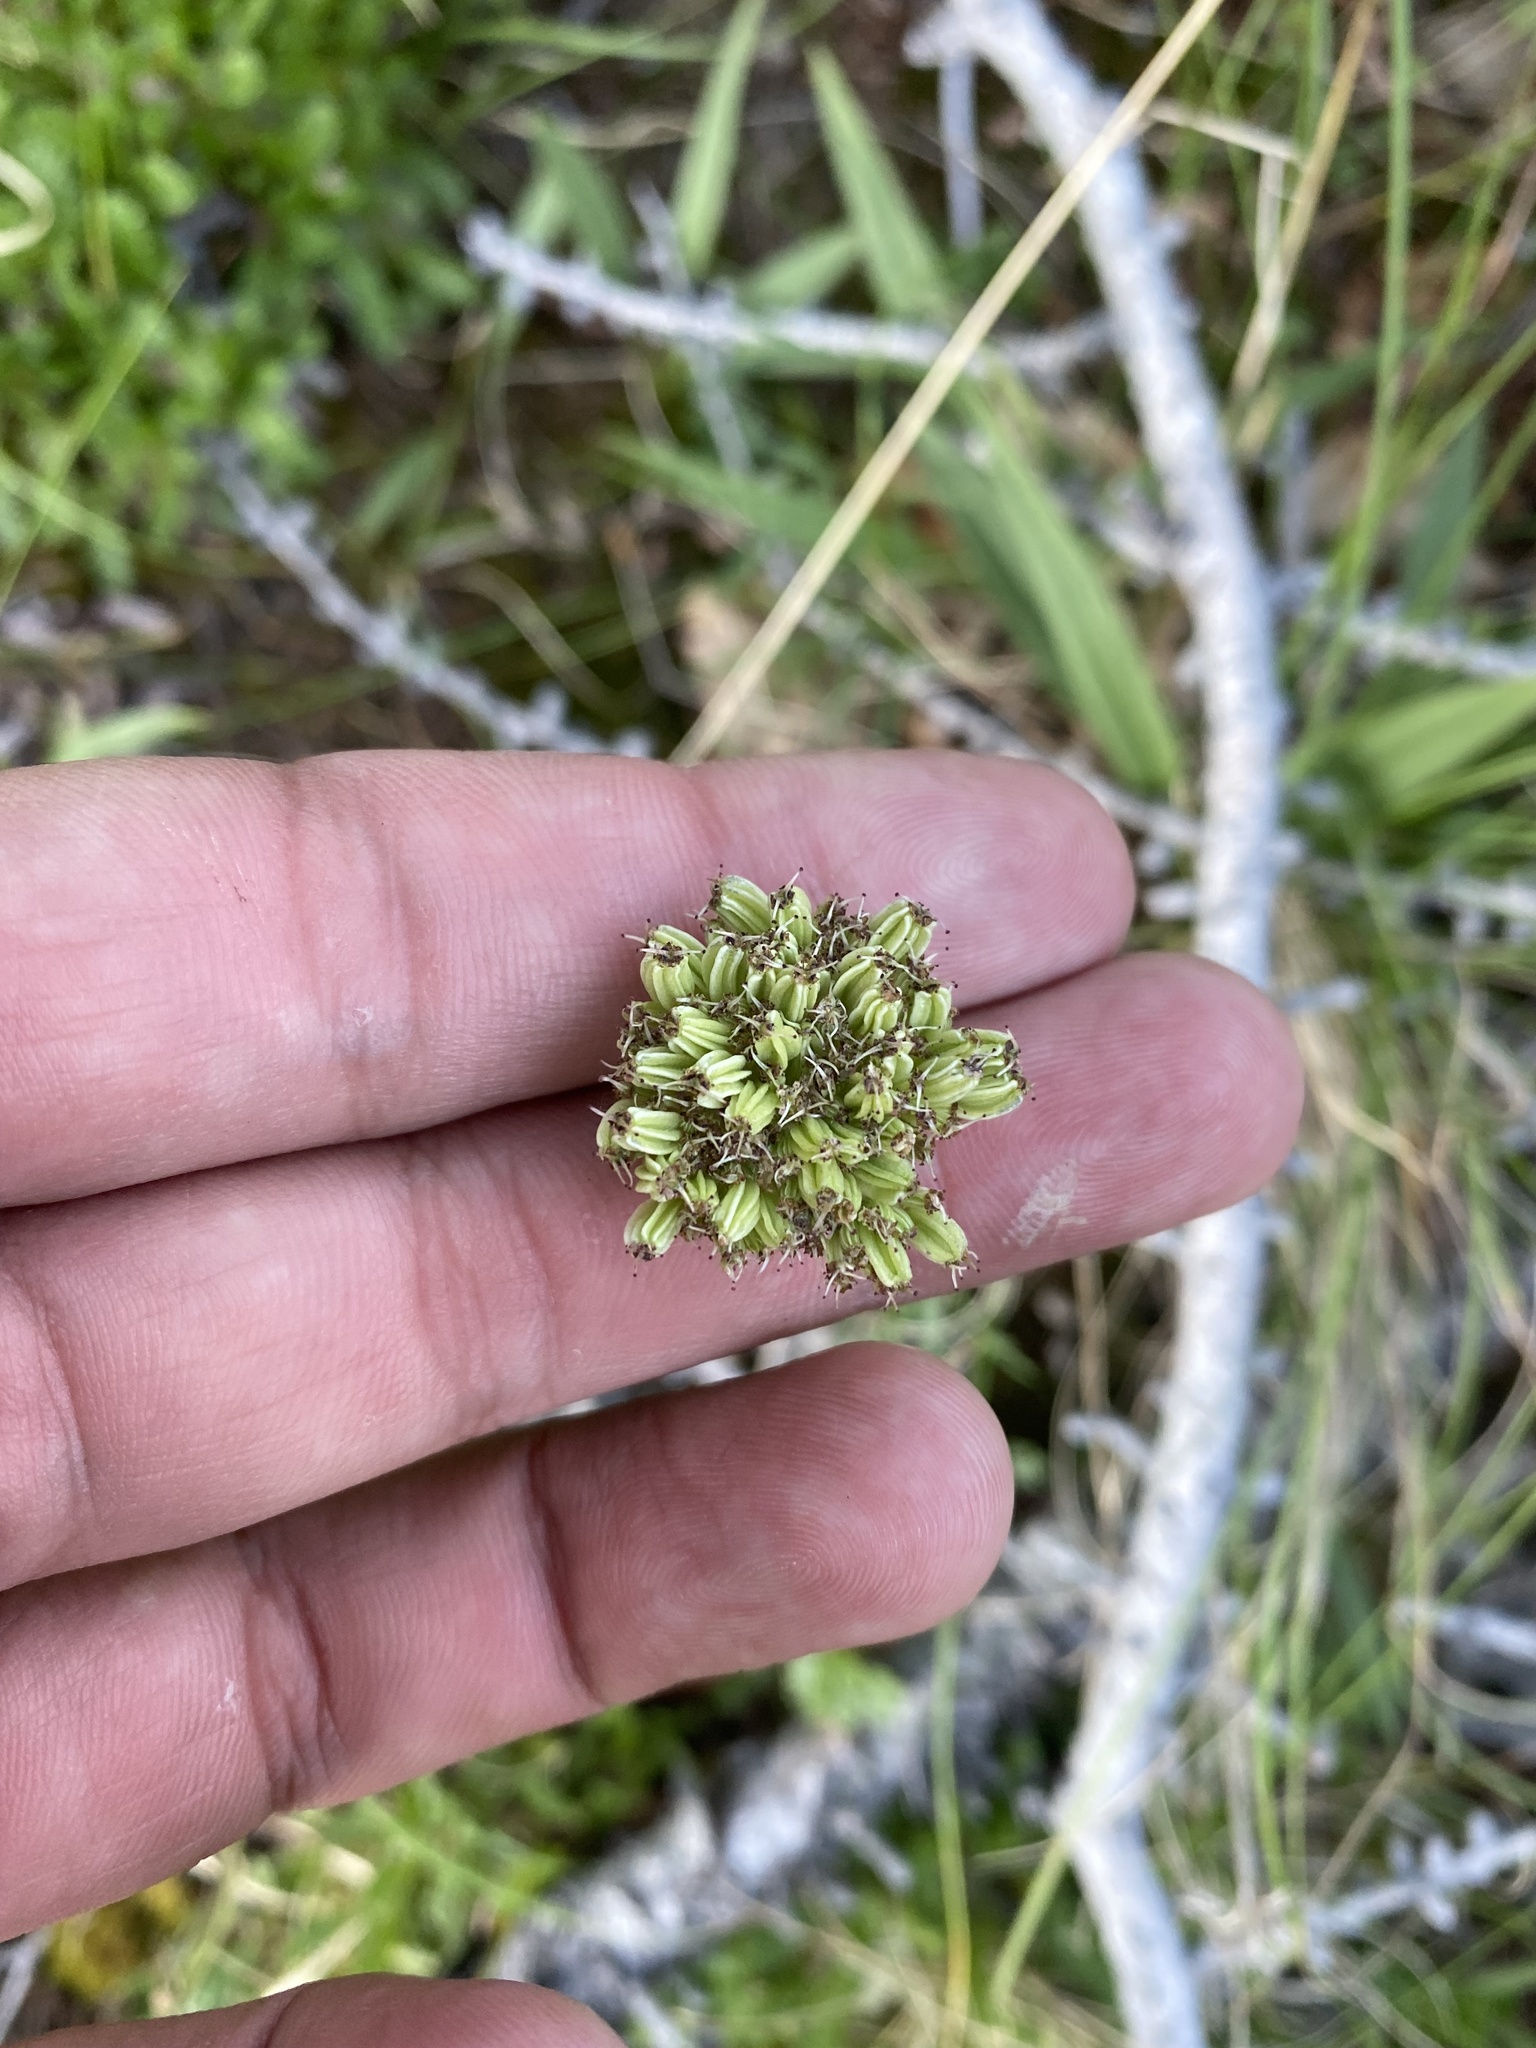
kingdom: Plantae
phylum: Tracheophyta
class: Magnoliopsida
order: Apiales
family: Apiaceae
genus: Pachypleurum
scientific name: Pachypleurum mutellinoides
